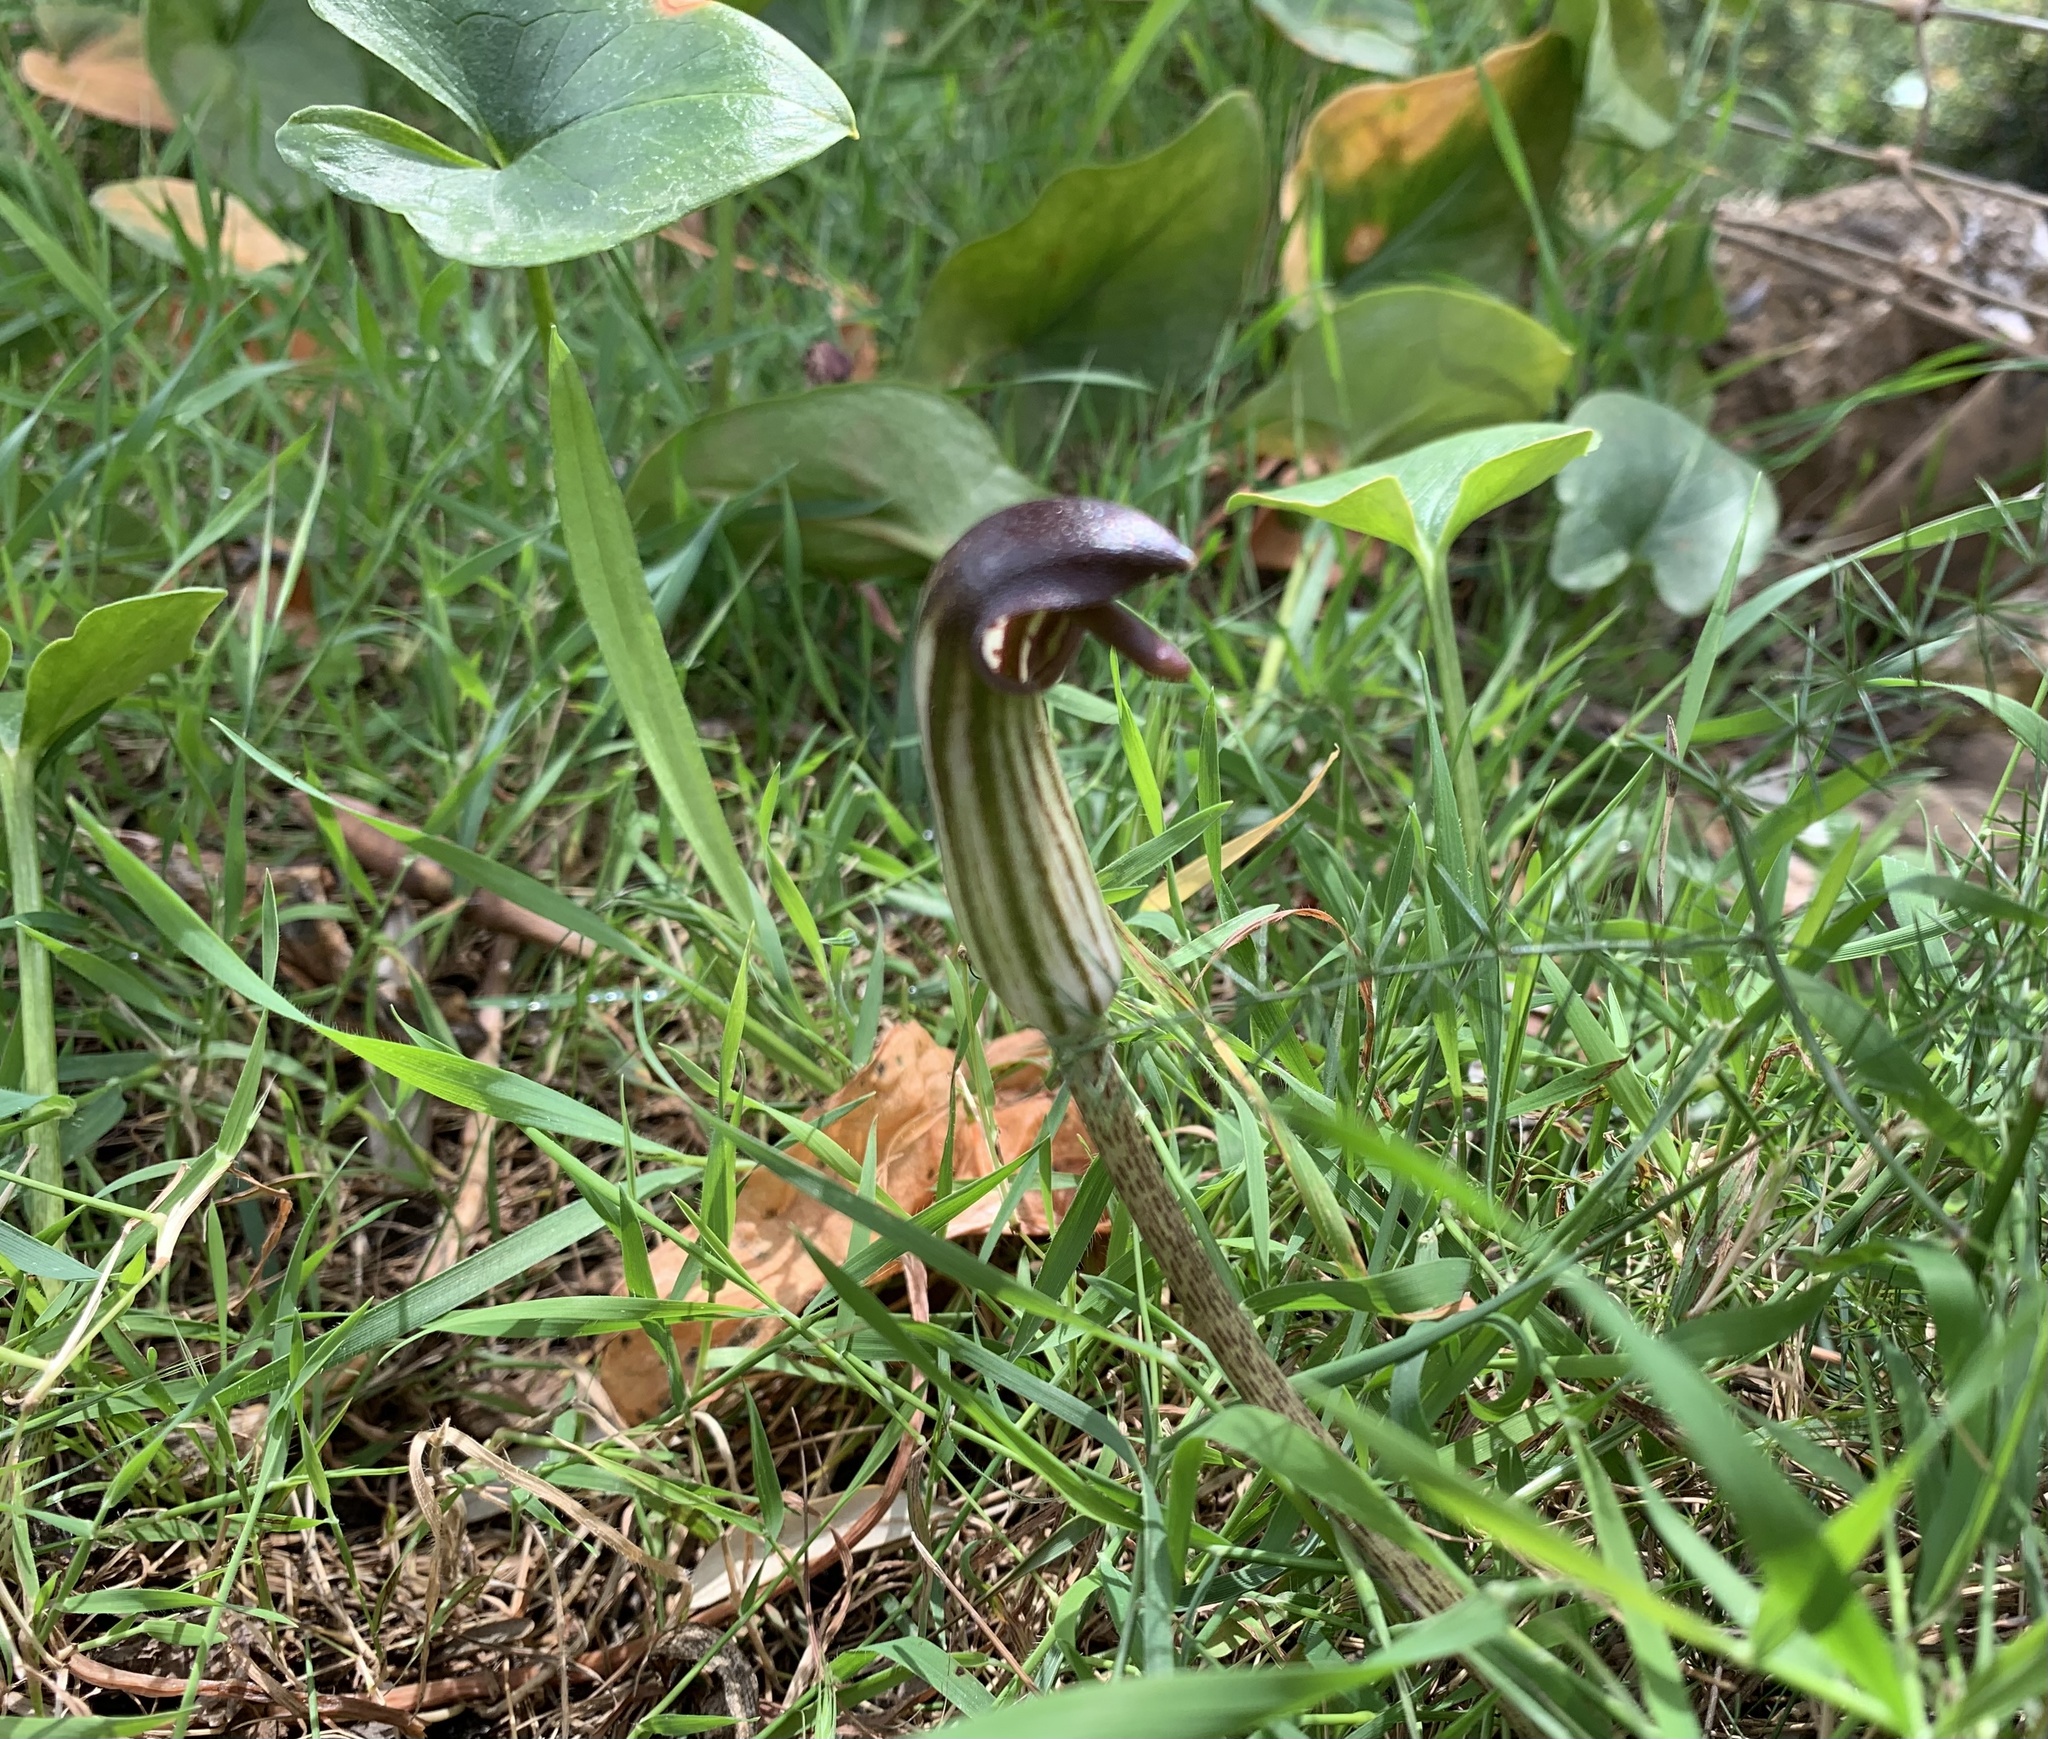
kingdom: Plantae
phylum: Tracheophyta
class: Liliopsida
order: Alismatales
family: Araceae
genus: Arisarum
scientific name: Arisarum vulgare
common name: Common arisarum
